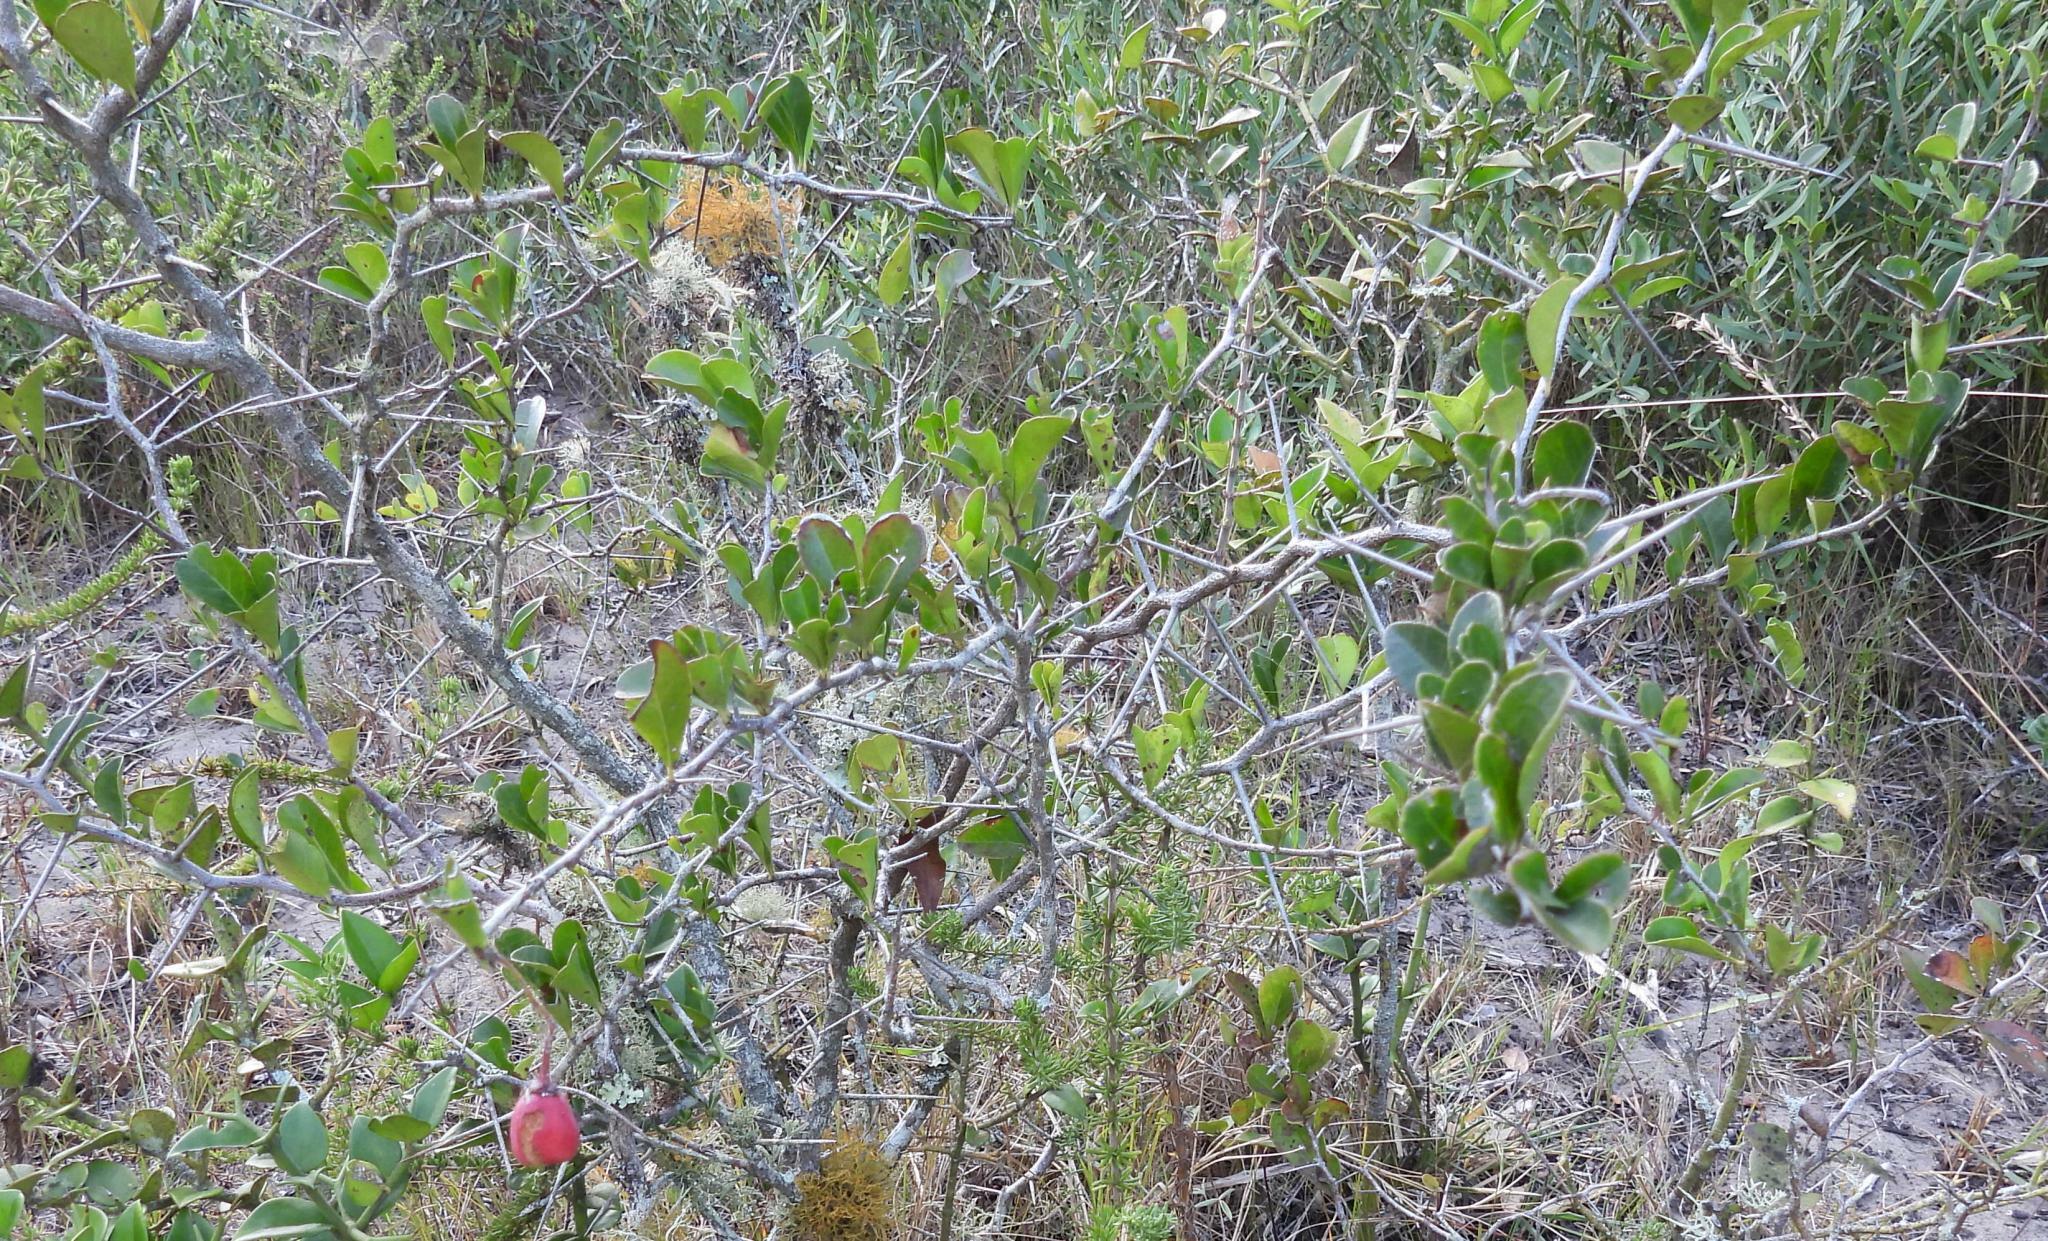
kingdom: Plantae
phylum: Tracheophyta
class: Magnoliopsida
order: Celastrales
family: Celastraceae
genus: Putterlickia
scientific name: Putterlickia pyracantha
